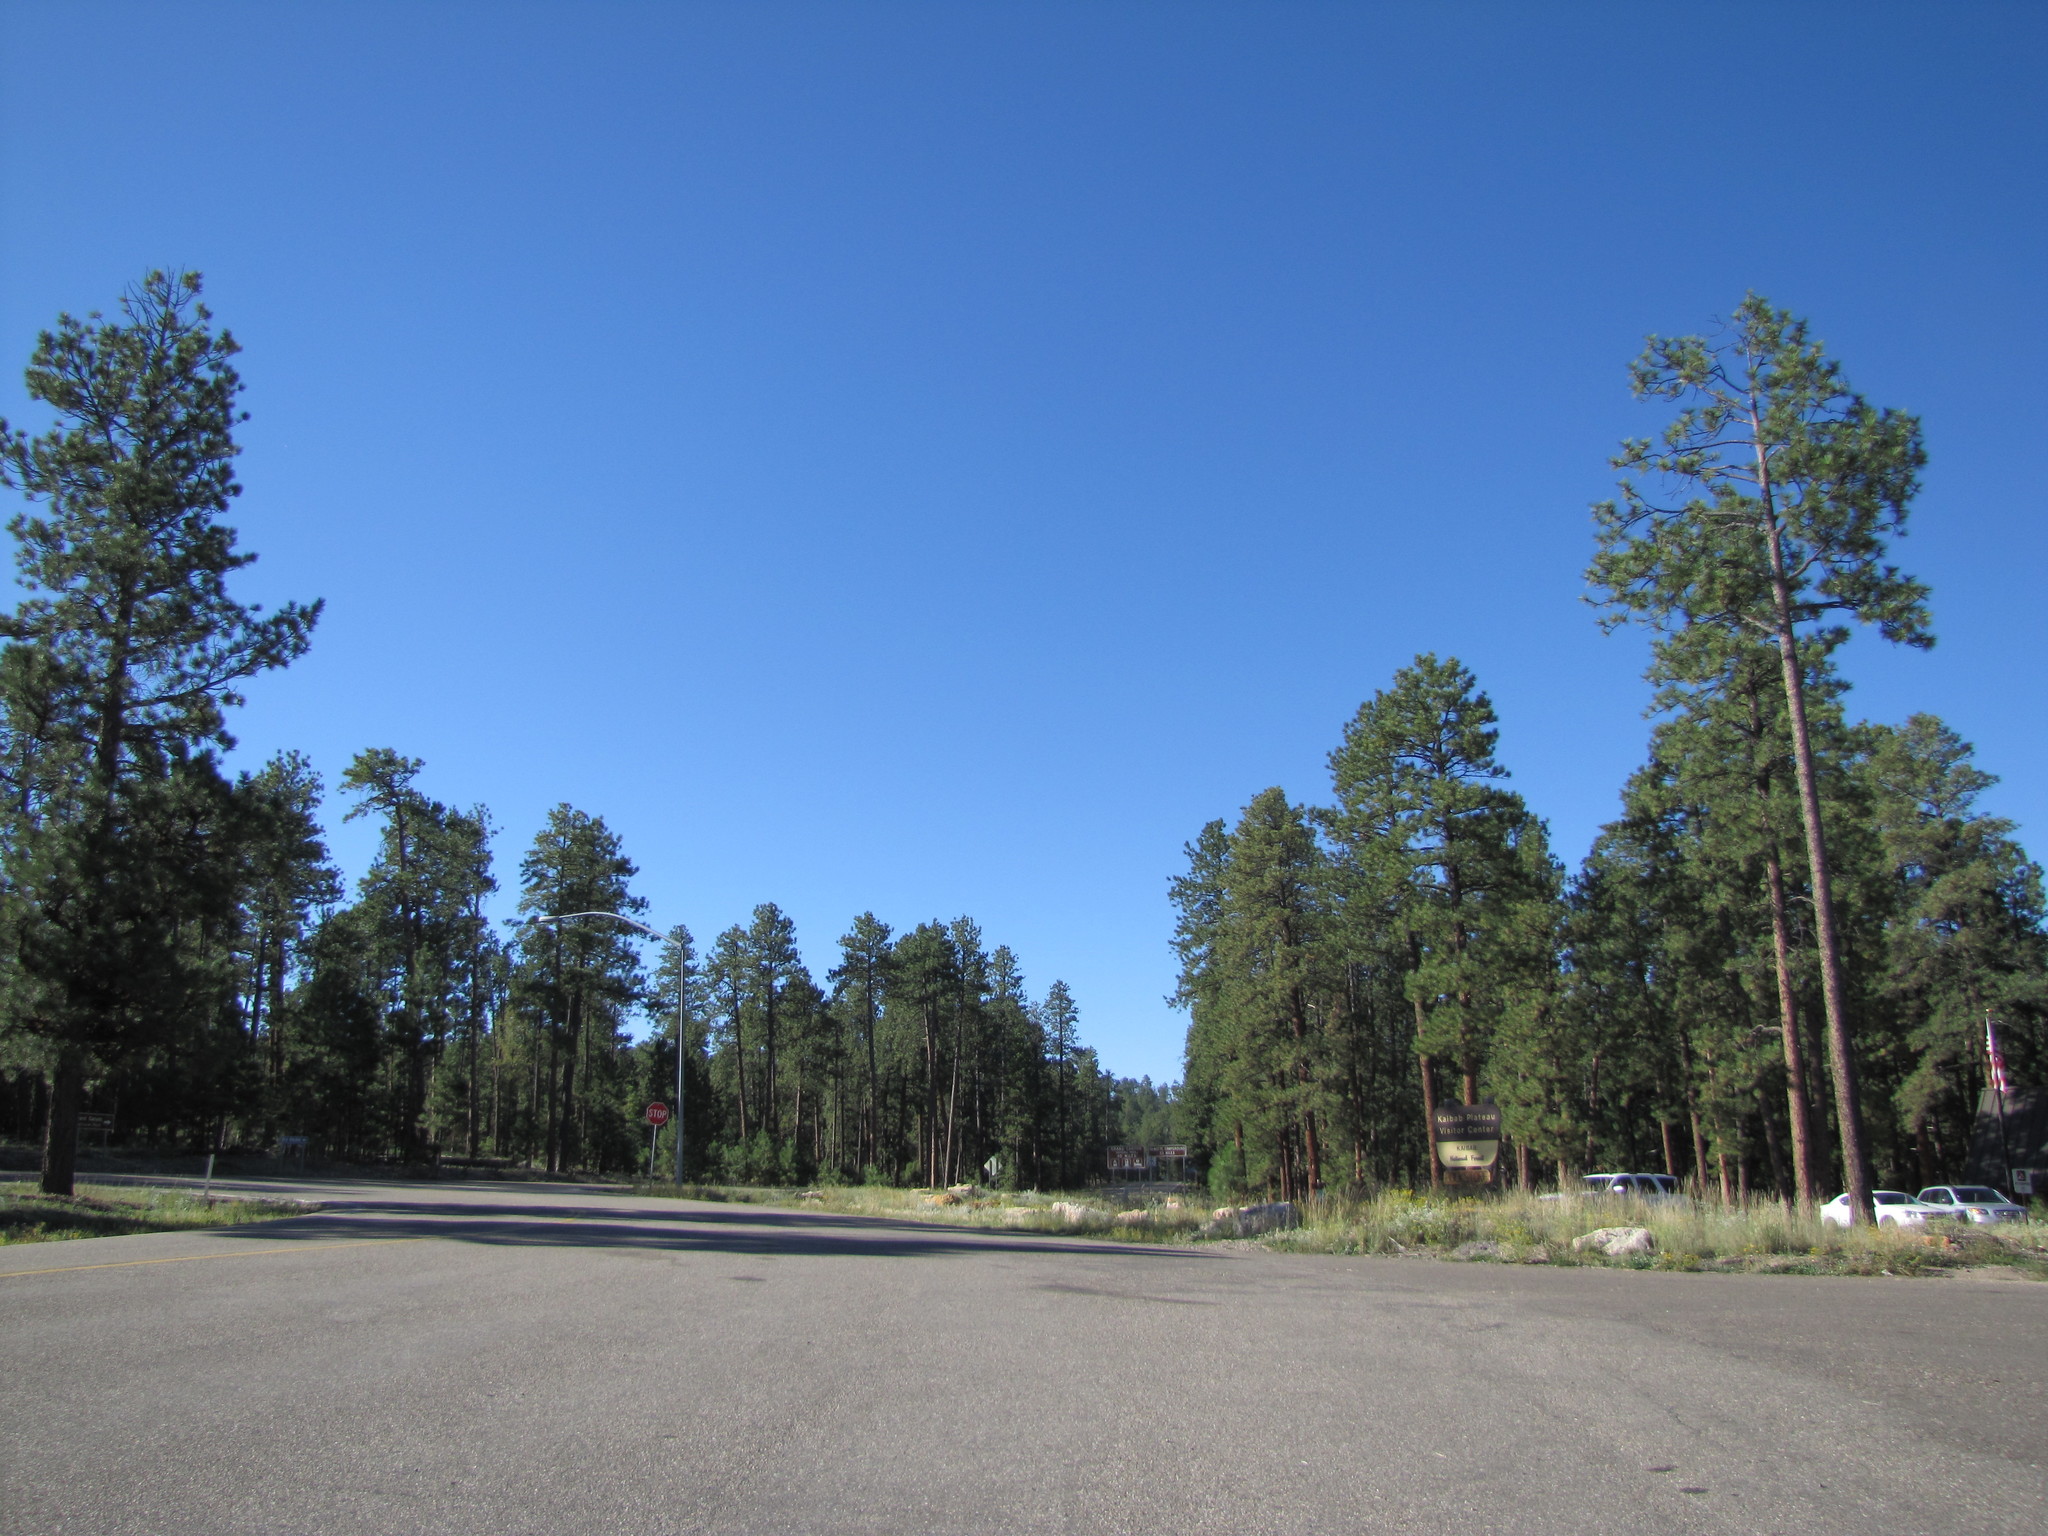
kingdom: Plantae
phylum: Tracheophyta
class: Pinopsida
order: Pinales
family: Pinaceae
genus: Pinus
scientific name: Pinus ponderosa
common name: Western yellow-pine
